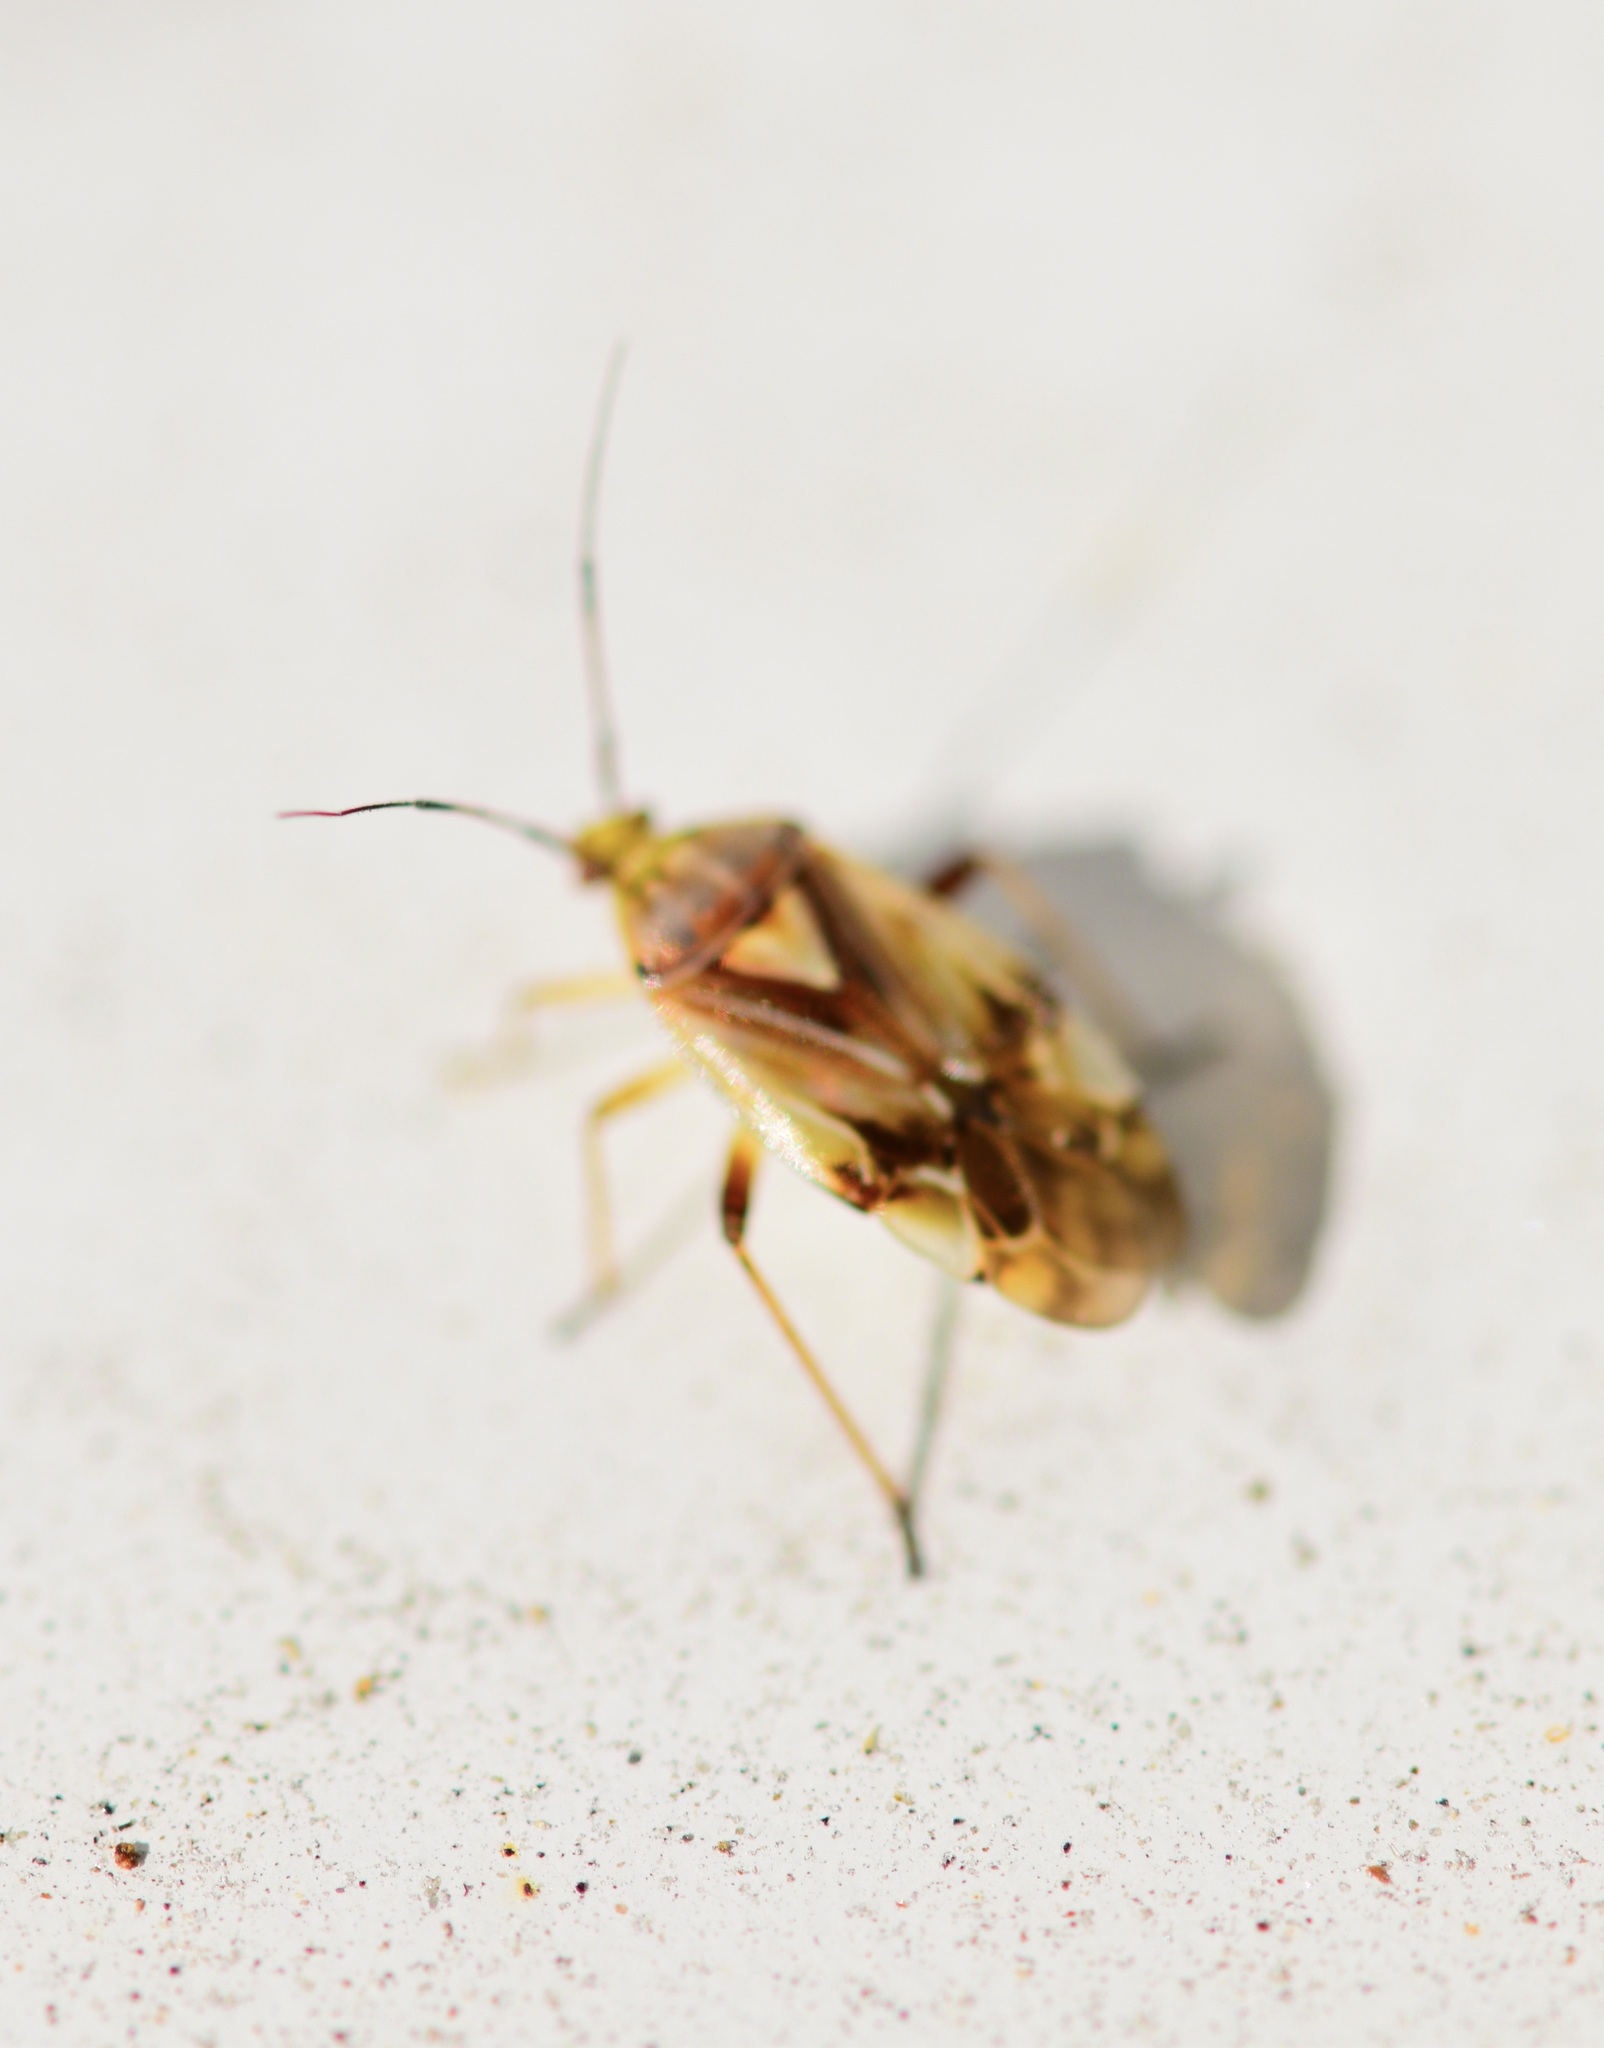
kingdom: Animalia
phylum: Arthropoda
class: Insecta
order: Hemiptera
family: Miridae
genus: Lygus
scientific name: Lygus lineolaris
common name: North american tarnished plant bug
